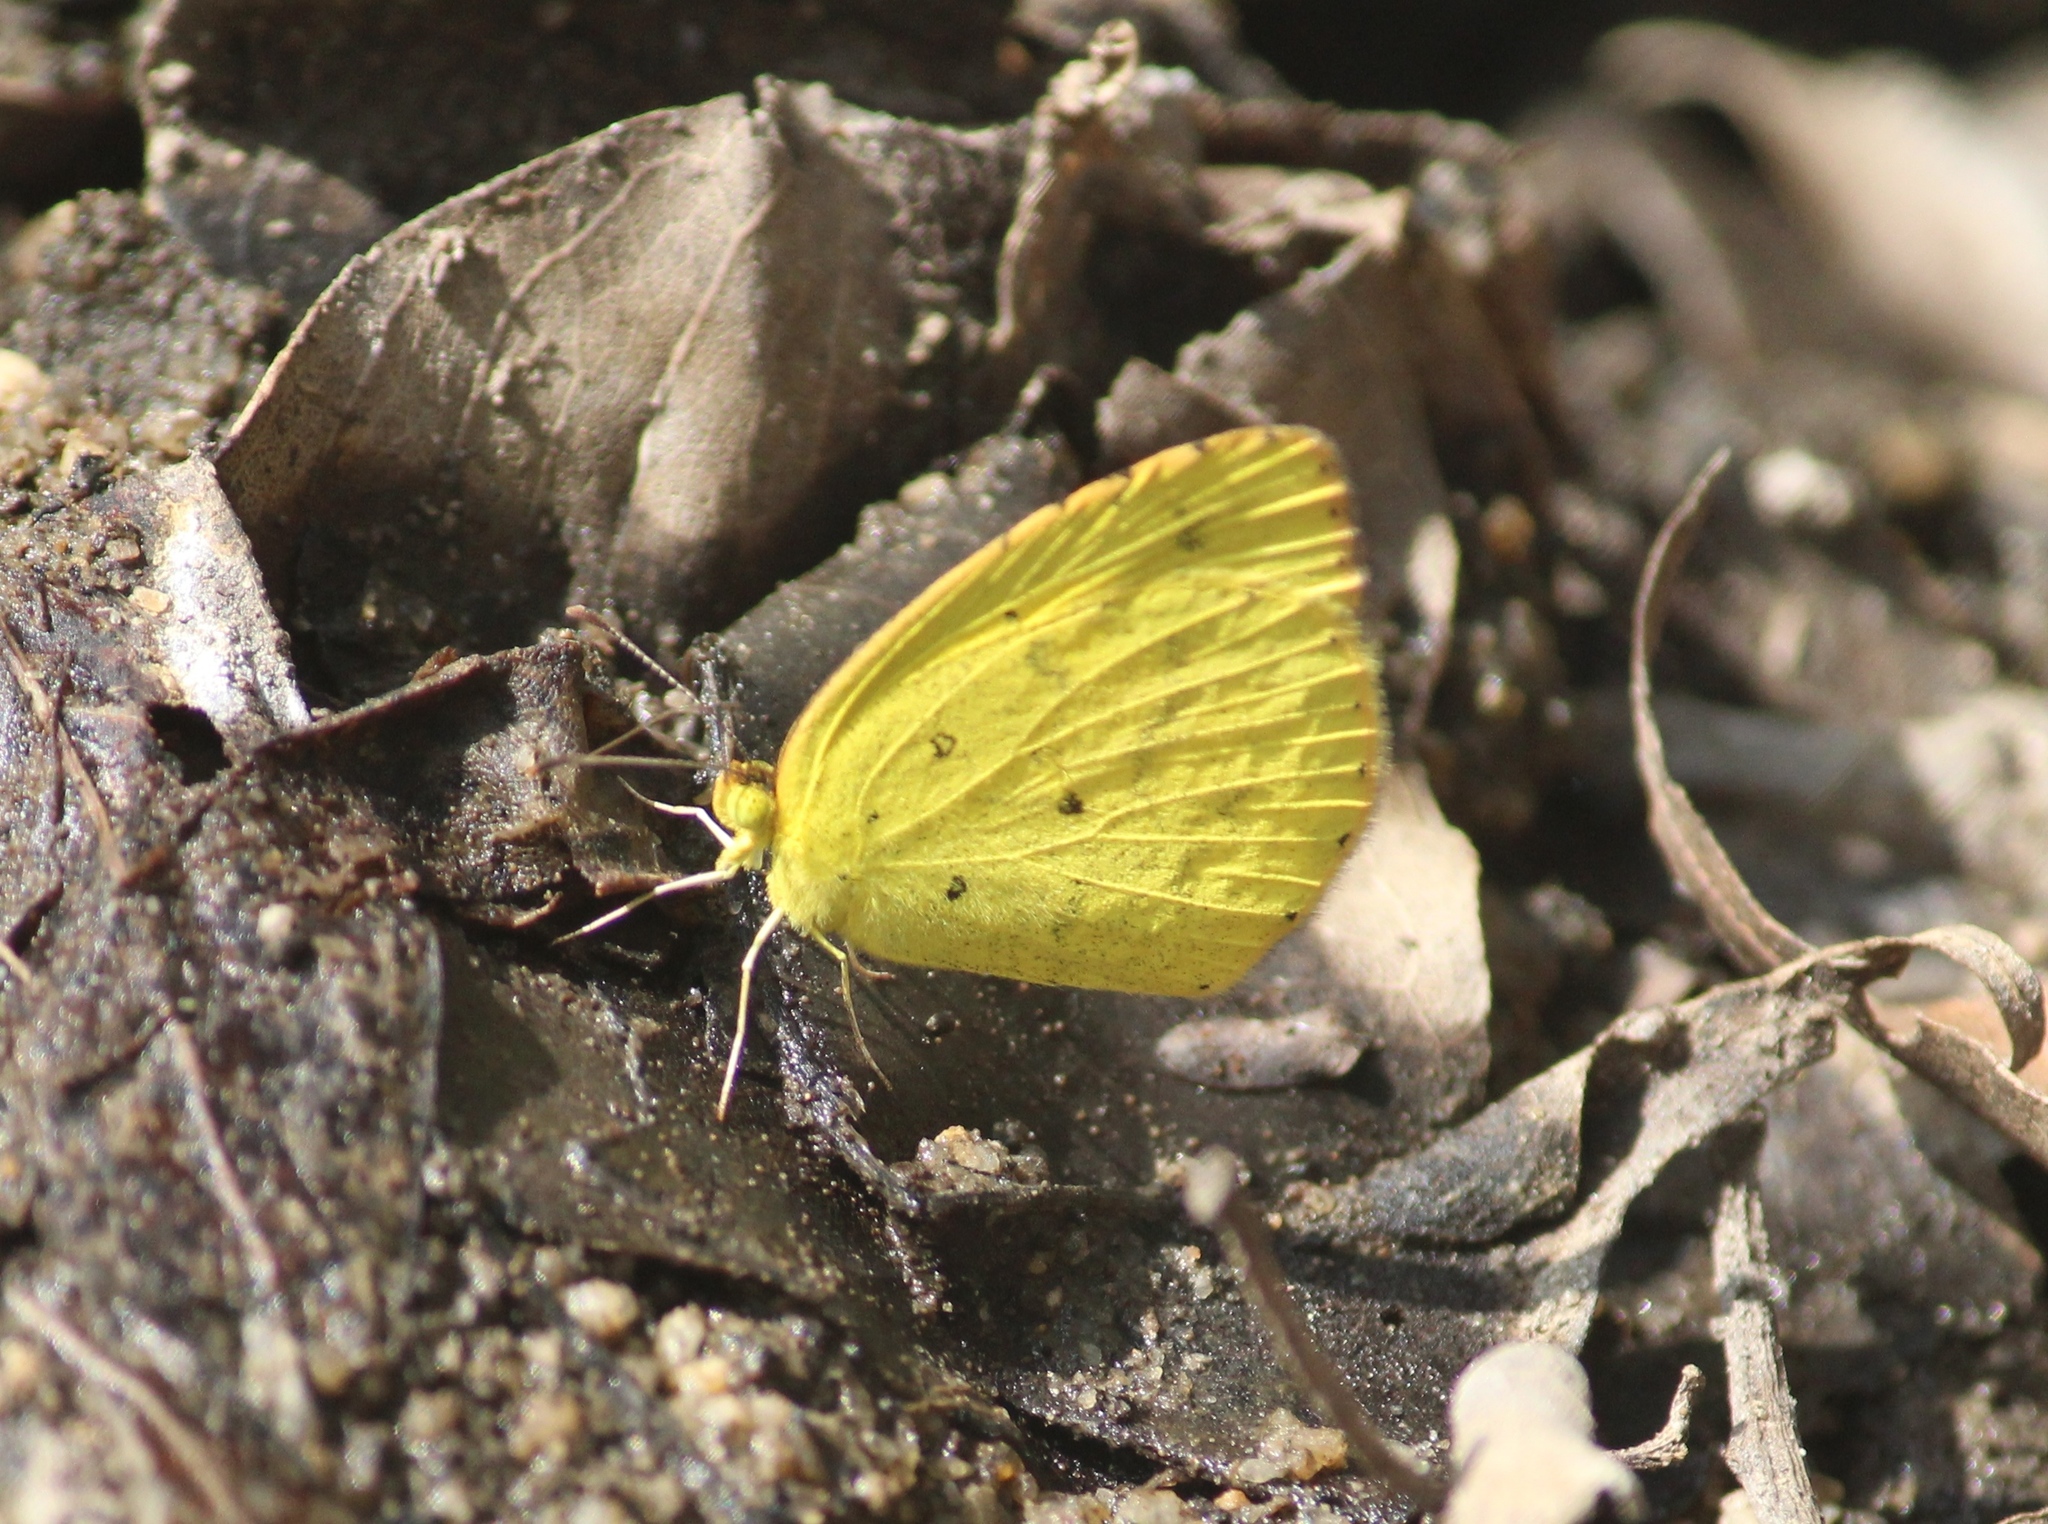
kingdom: Animalia
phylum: Arthropoda
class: Insecta
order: Lepidoptera
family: Pieridae
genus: Eurema
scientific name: Eurema brigitta
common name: Small grass yellow
